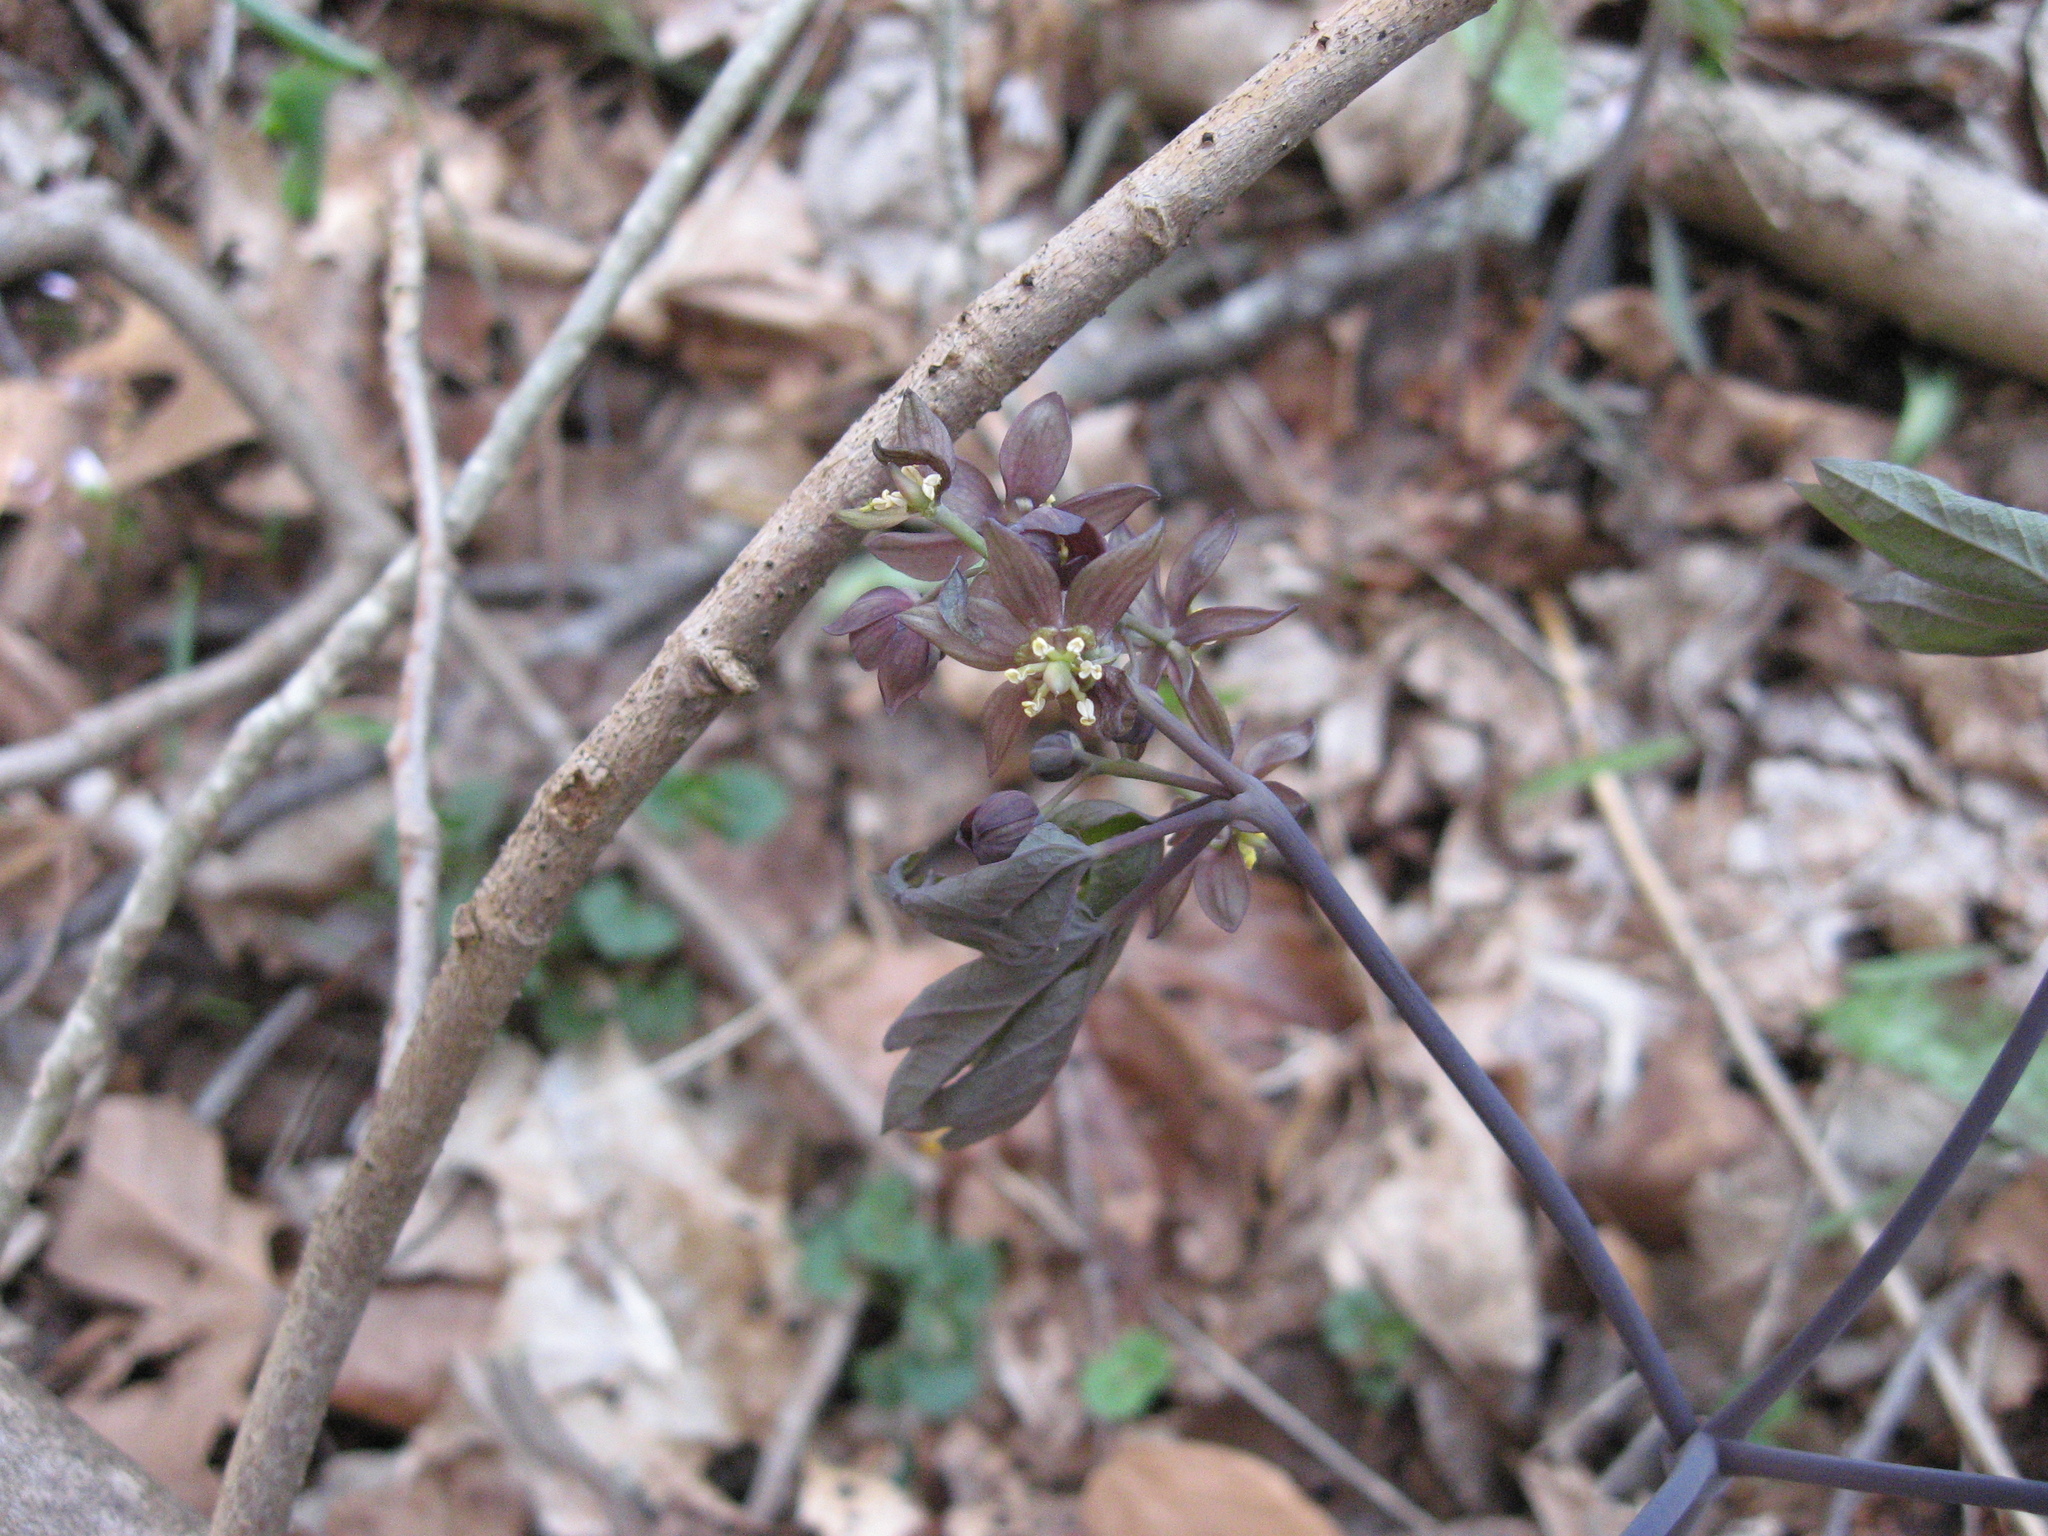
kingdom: Plantae
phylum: Tracheophyta
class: Magnoliopsida
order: Ranunculales
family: Berberidaceae
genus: Caulophyllum
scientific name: Caulophyllum giganteum
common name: Blue cohosh
